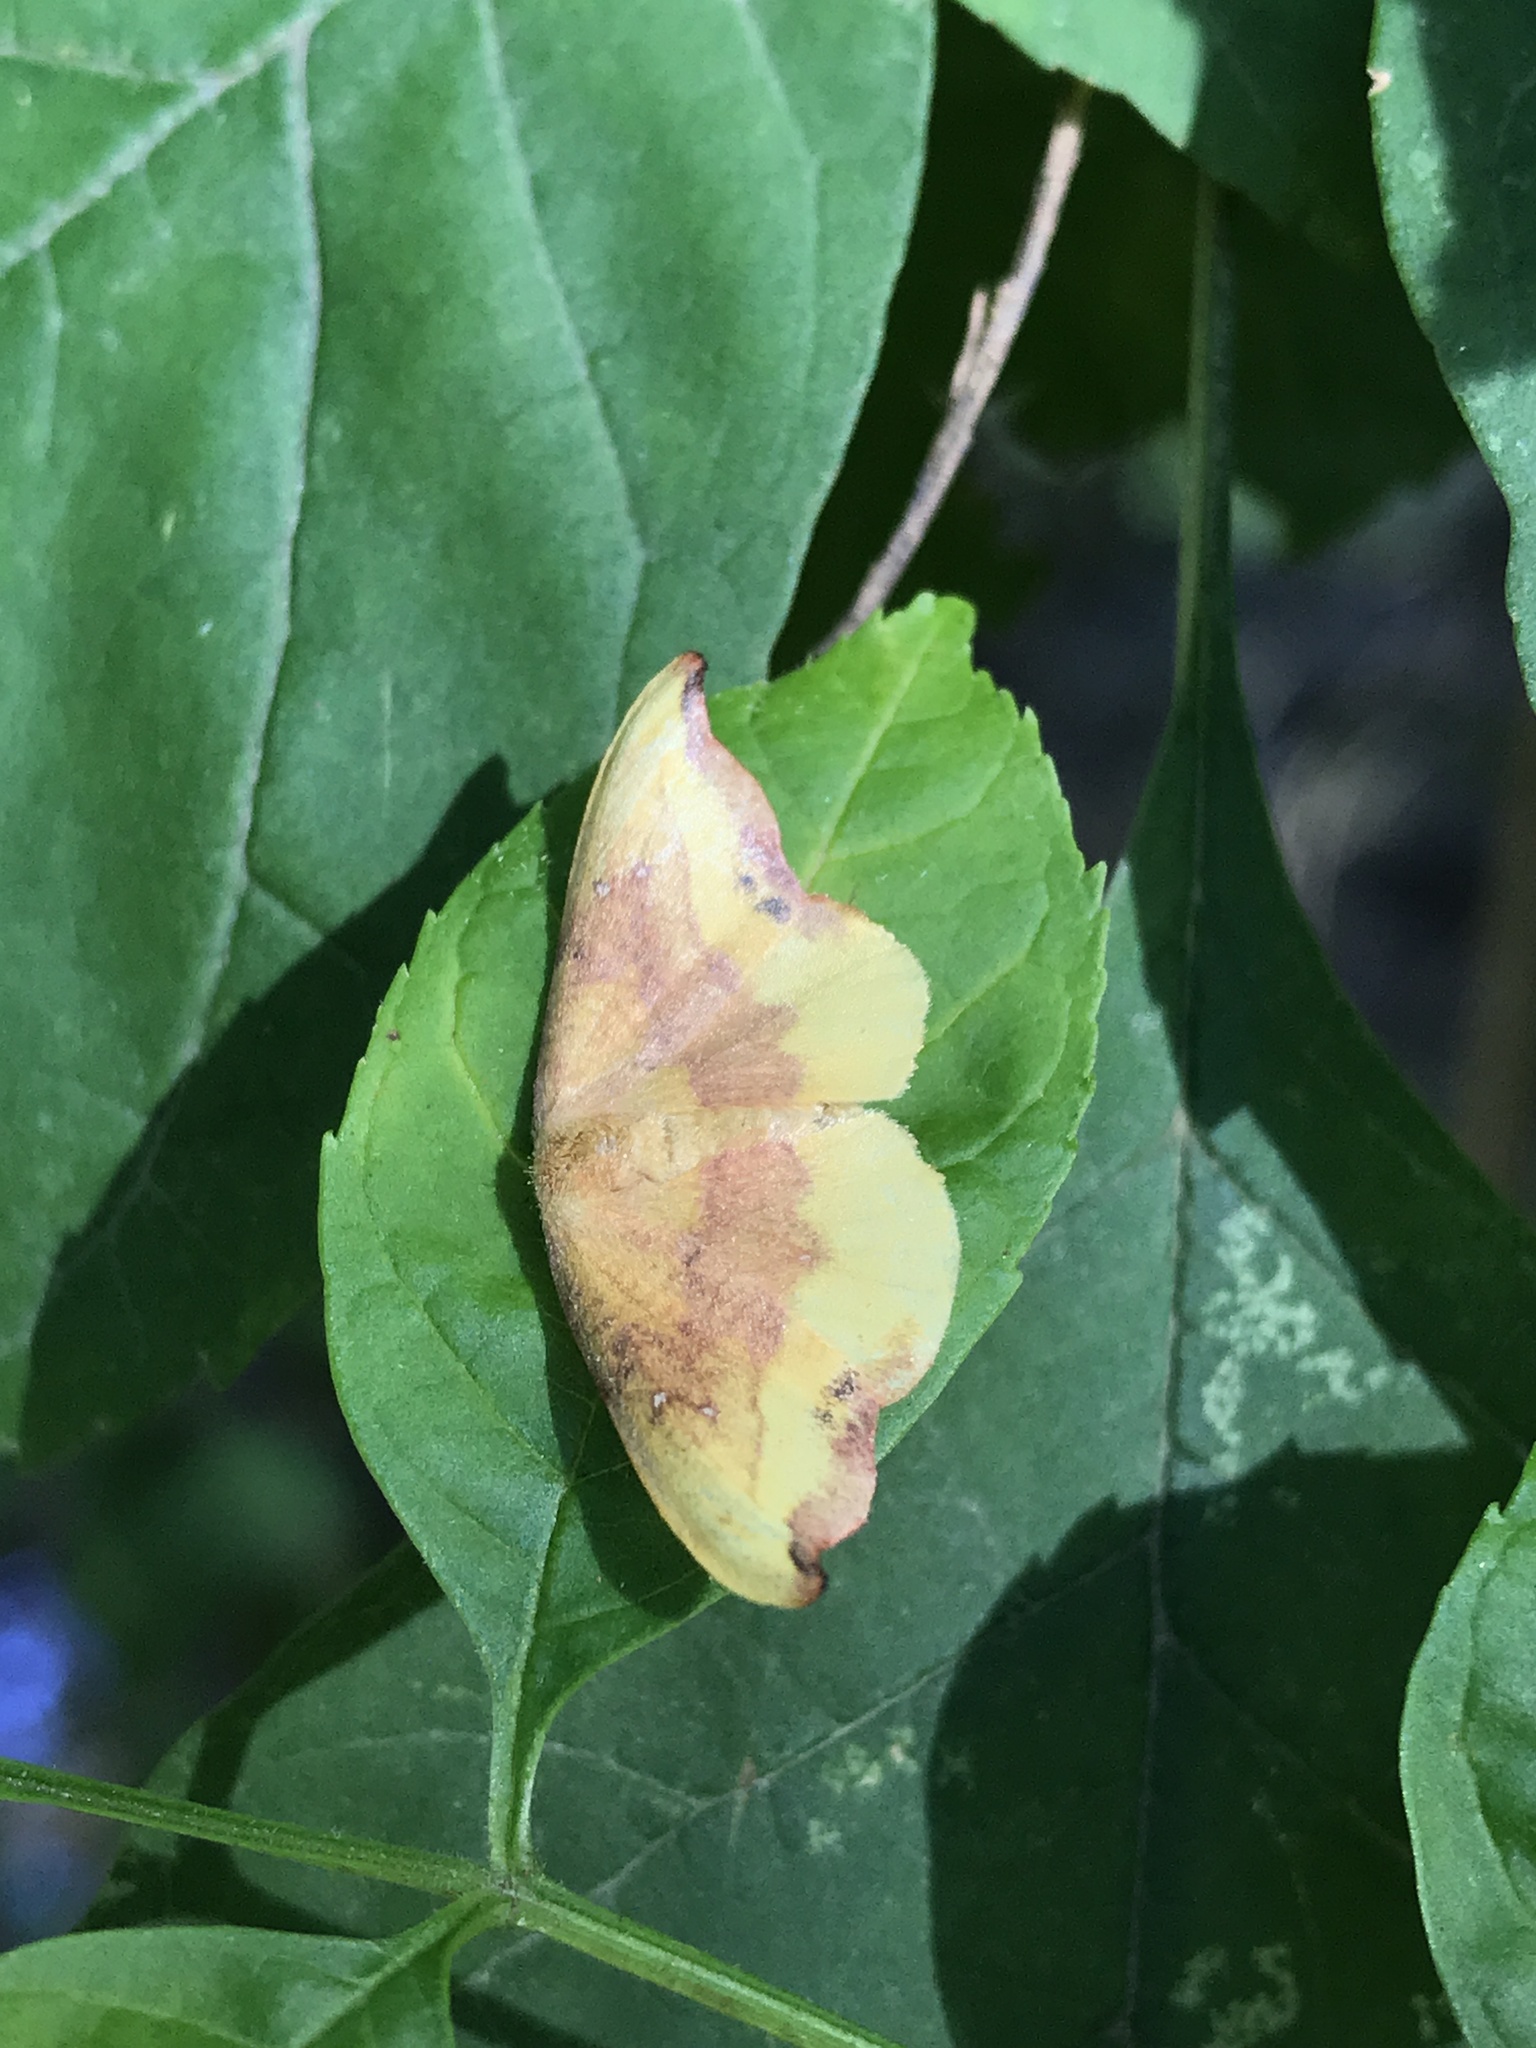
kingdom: Animalia
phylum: Arthropoda
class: Insecta
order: Lepidoptera
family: Drepanidae
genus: Oreta
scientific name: Oreta rosea
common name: Rose hooktip
